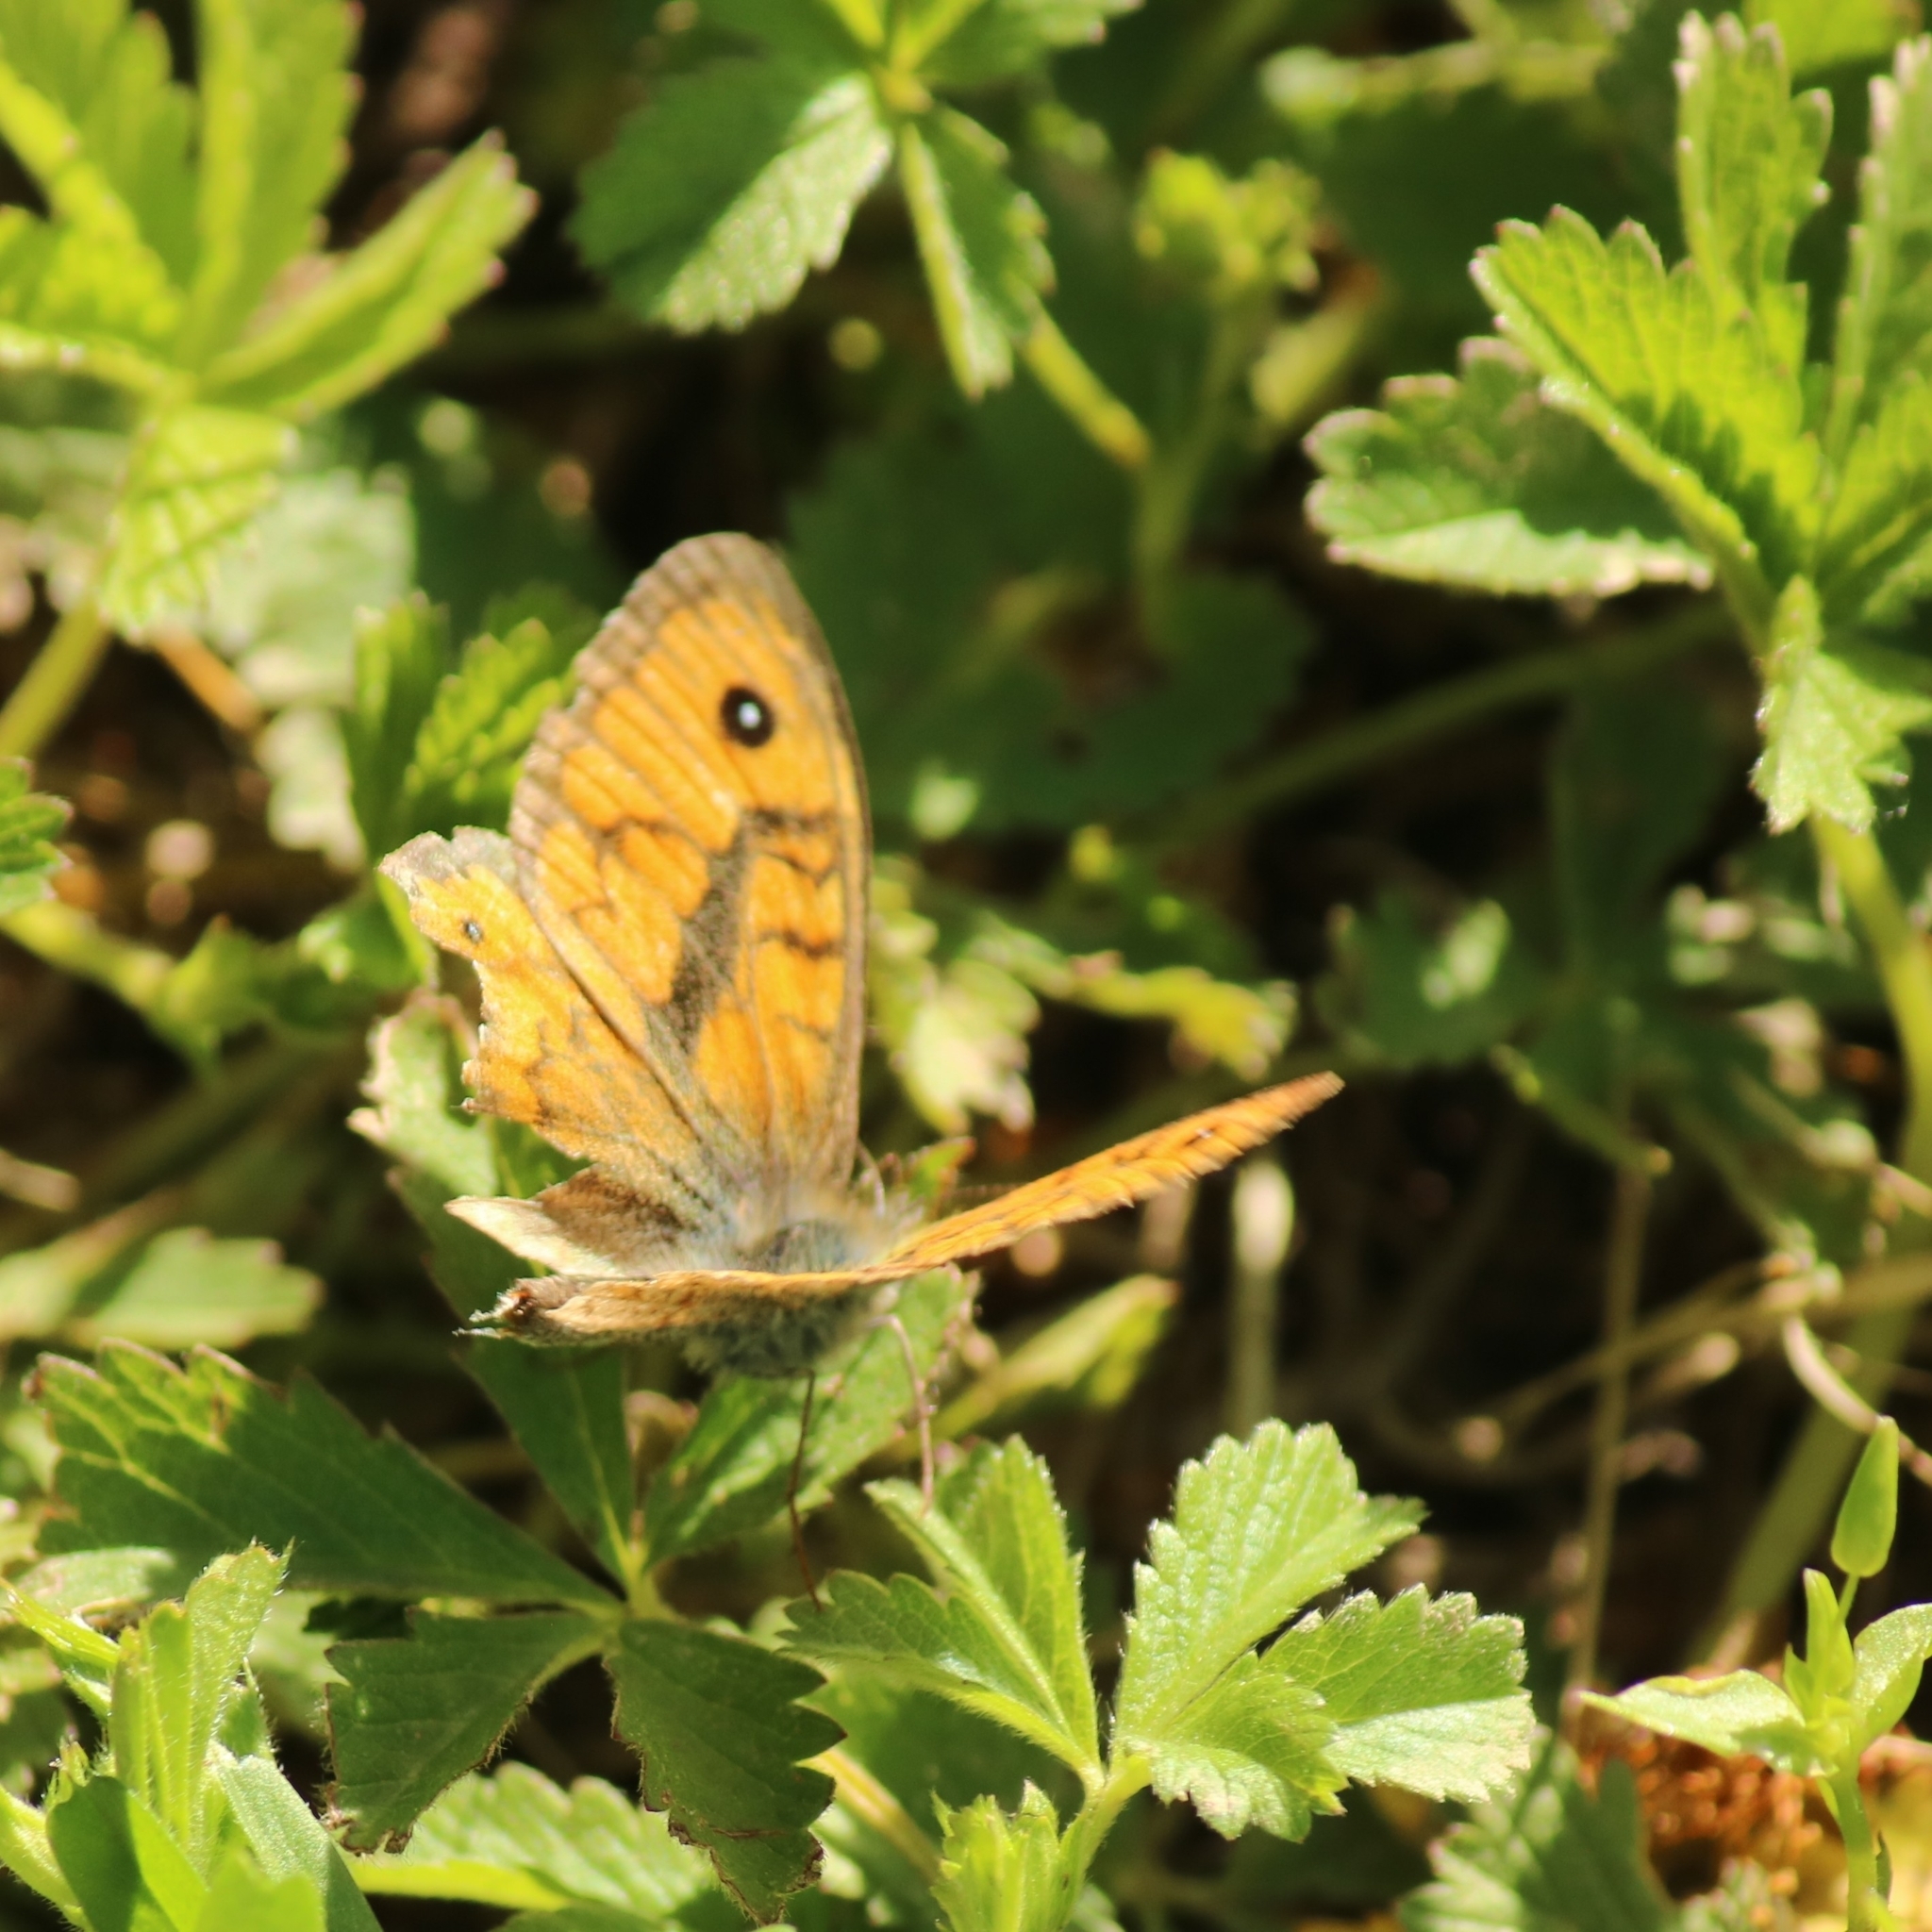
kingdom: Animalia
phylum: Arthropoda
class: Insecta
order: Lepidoptera
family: Nymphalidae
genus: Pararge
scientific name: Pararge Lasiommata megera
